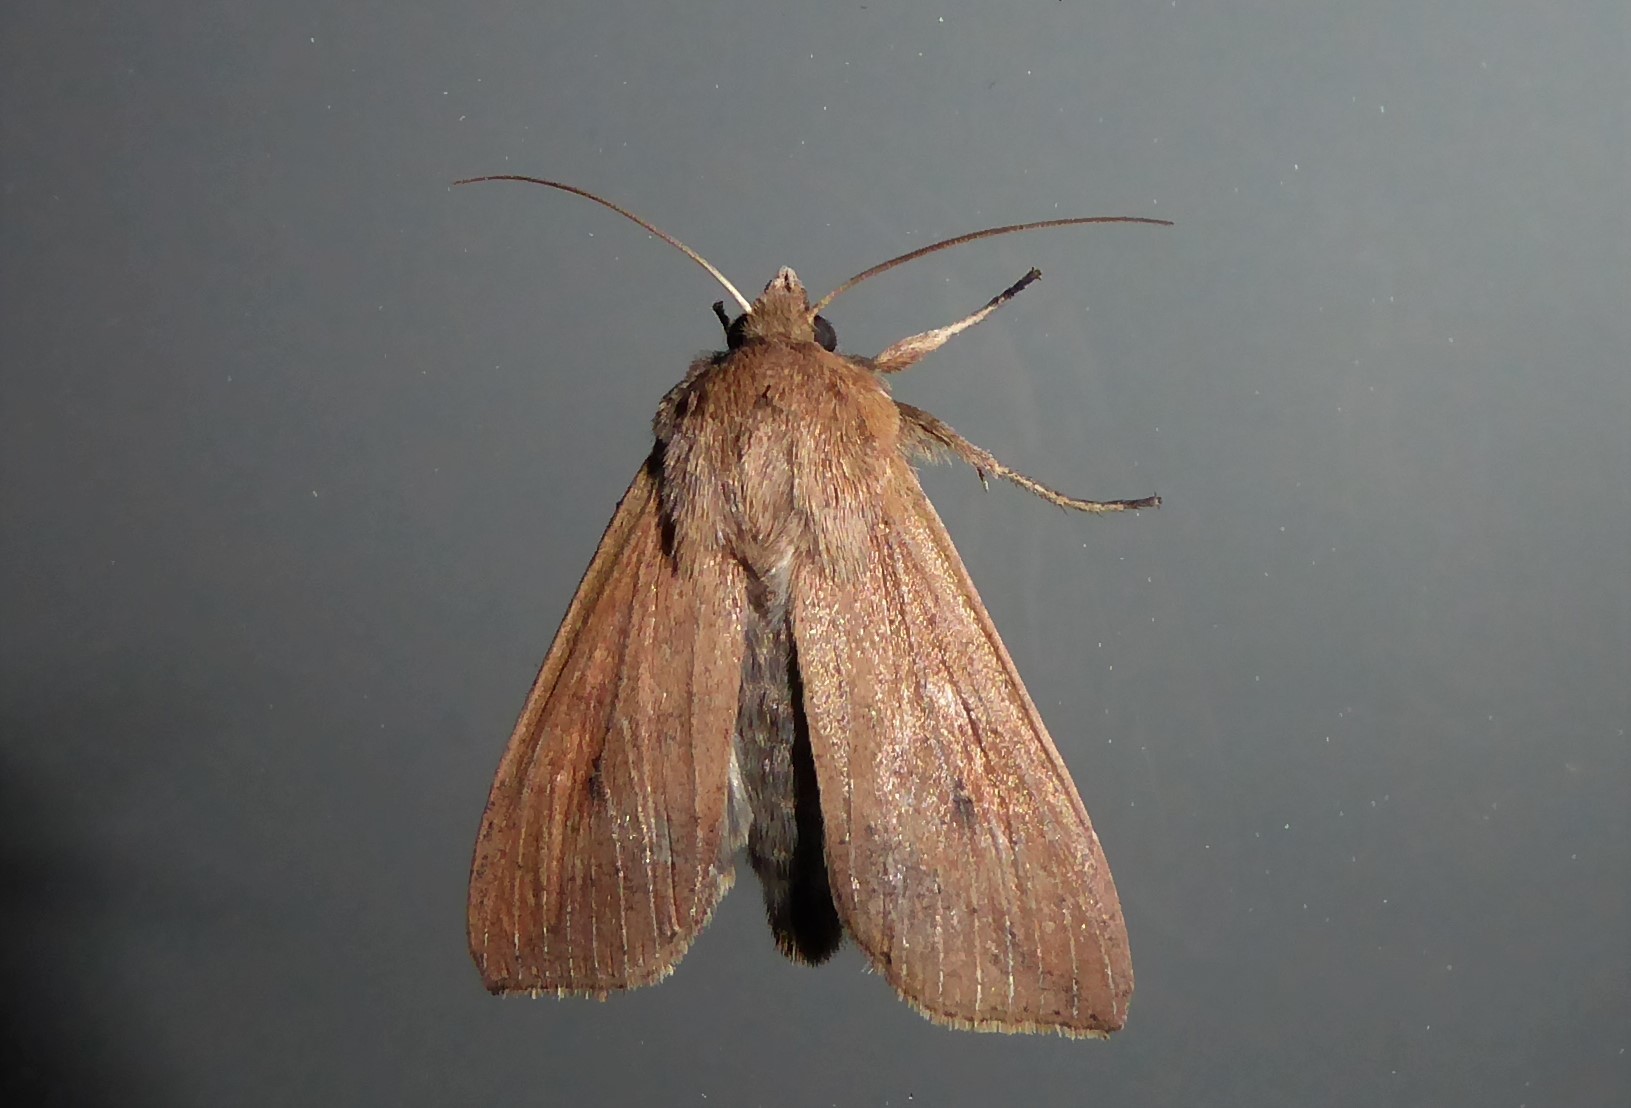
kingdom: Animalia
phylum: Arthropoda
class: Insecta
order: Lepidoptera
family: Noctuidae
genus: Mythimna
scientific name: Mythimna separata
